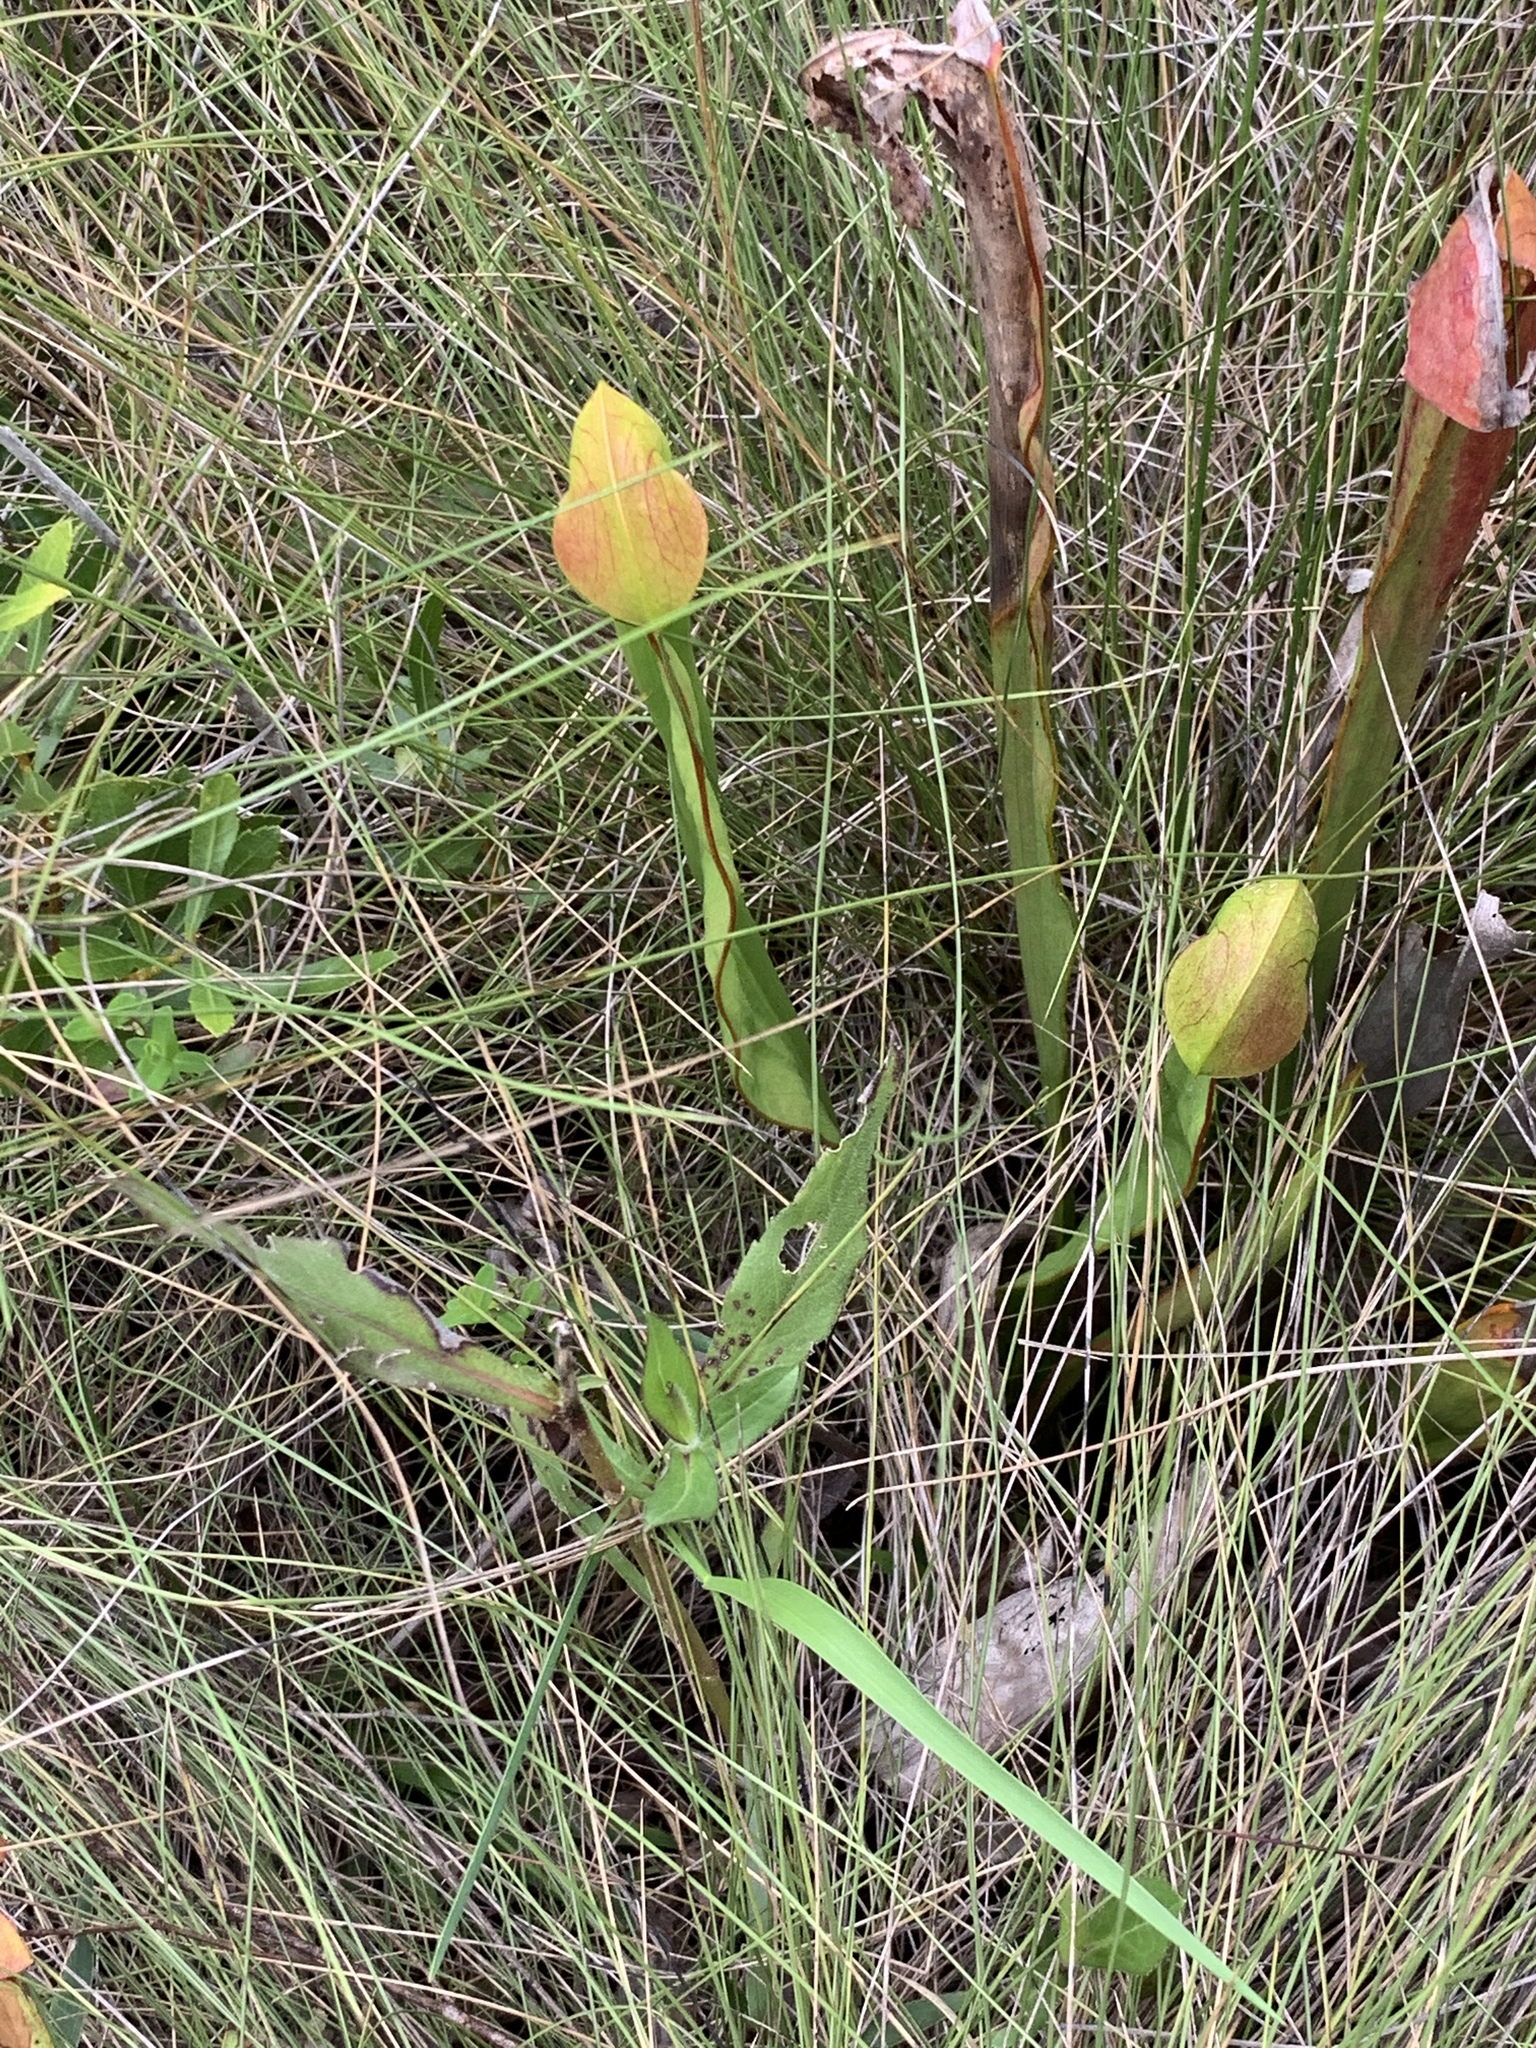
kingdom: Plantae
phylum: Tracheophyta
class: Magnoliopsida
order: Ericales
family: Sarraceniaceae
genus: Sarracenia
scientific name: Sarracenia minor
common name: Rainhat-trumpet
